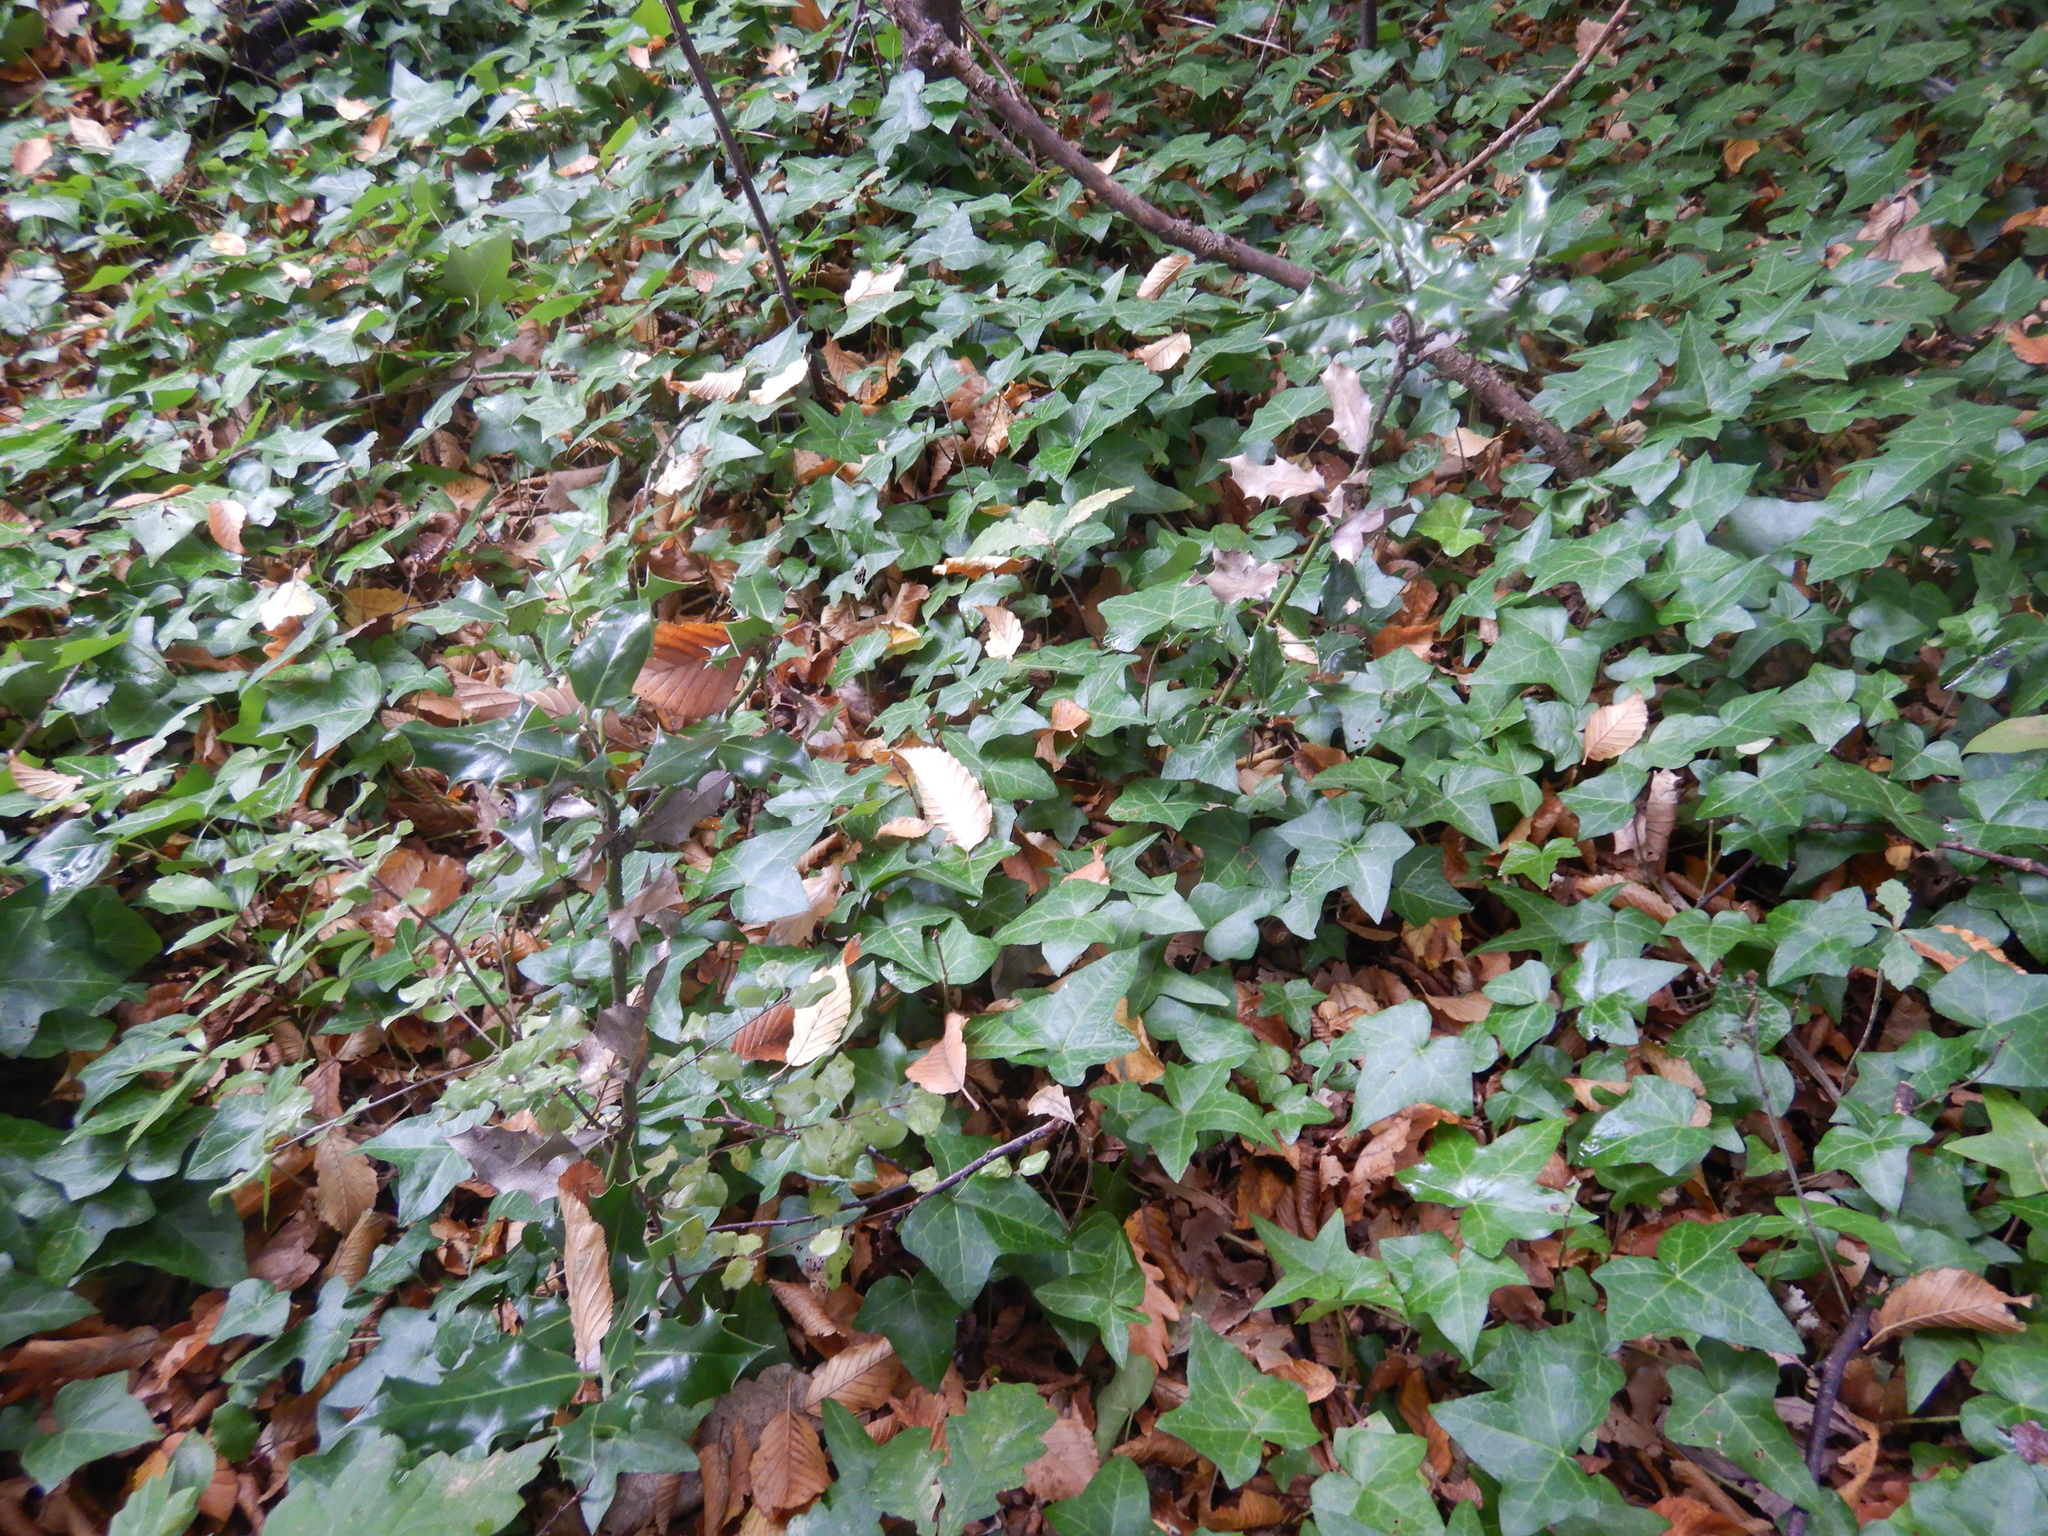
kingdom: Plantae
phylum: Tracheophyta
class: Magnoliopsida
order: Aquifoliales
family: Aquifoliaceae
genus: Ilex
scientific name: Ilex aquifolium
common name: English holly
